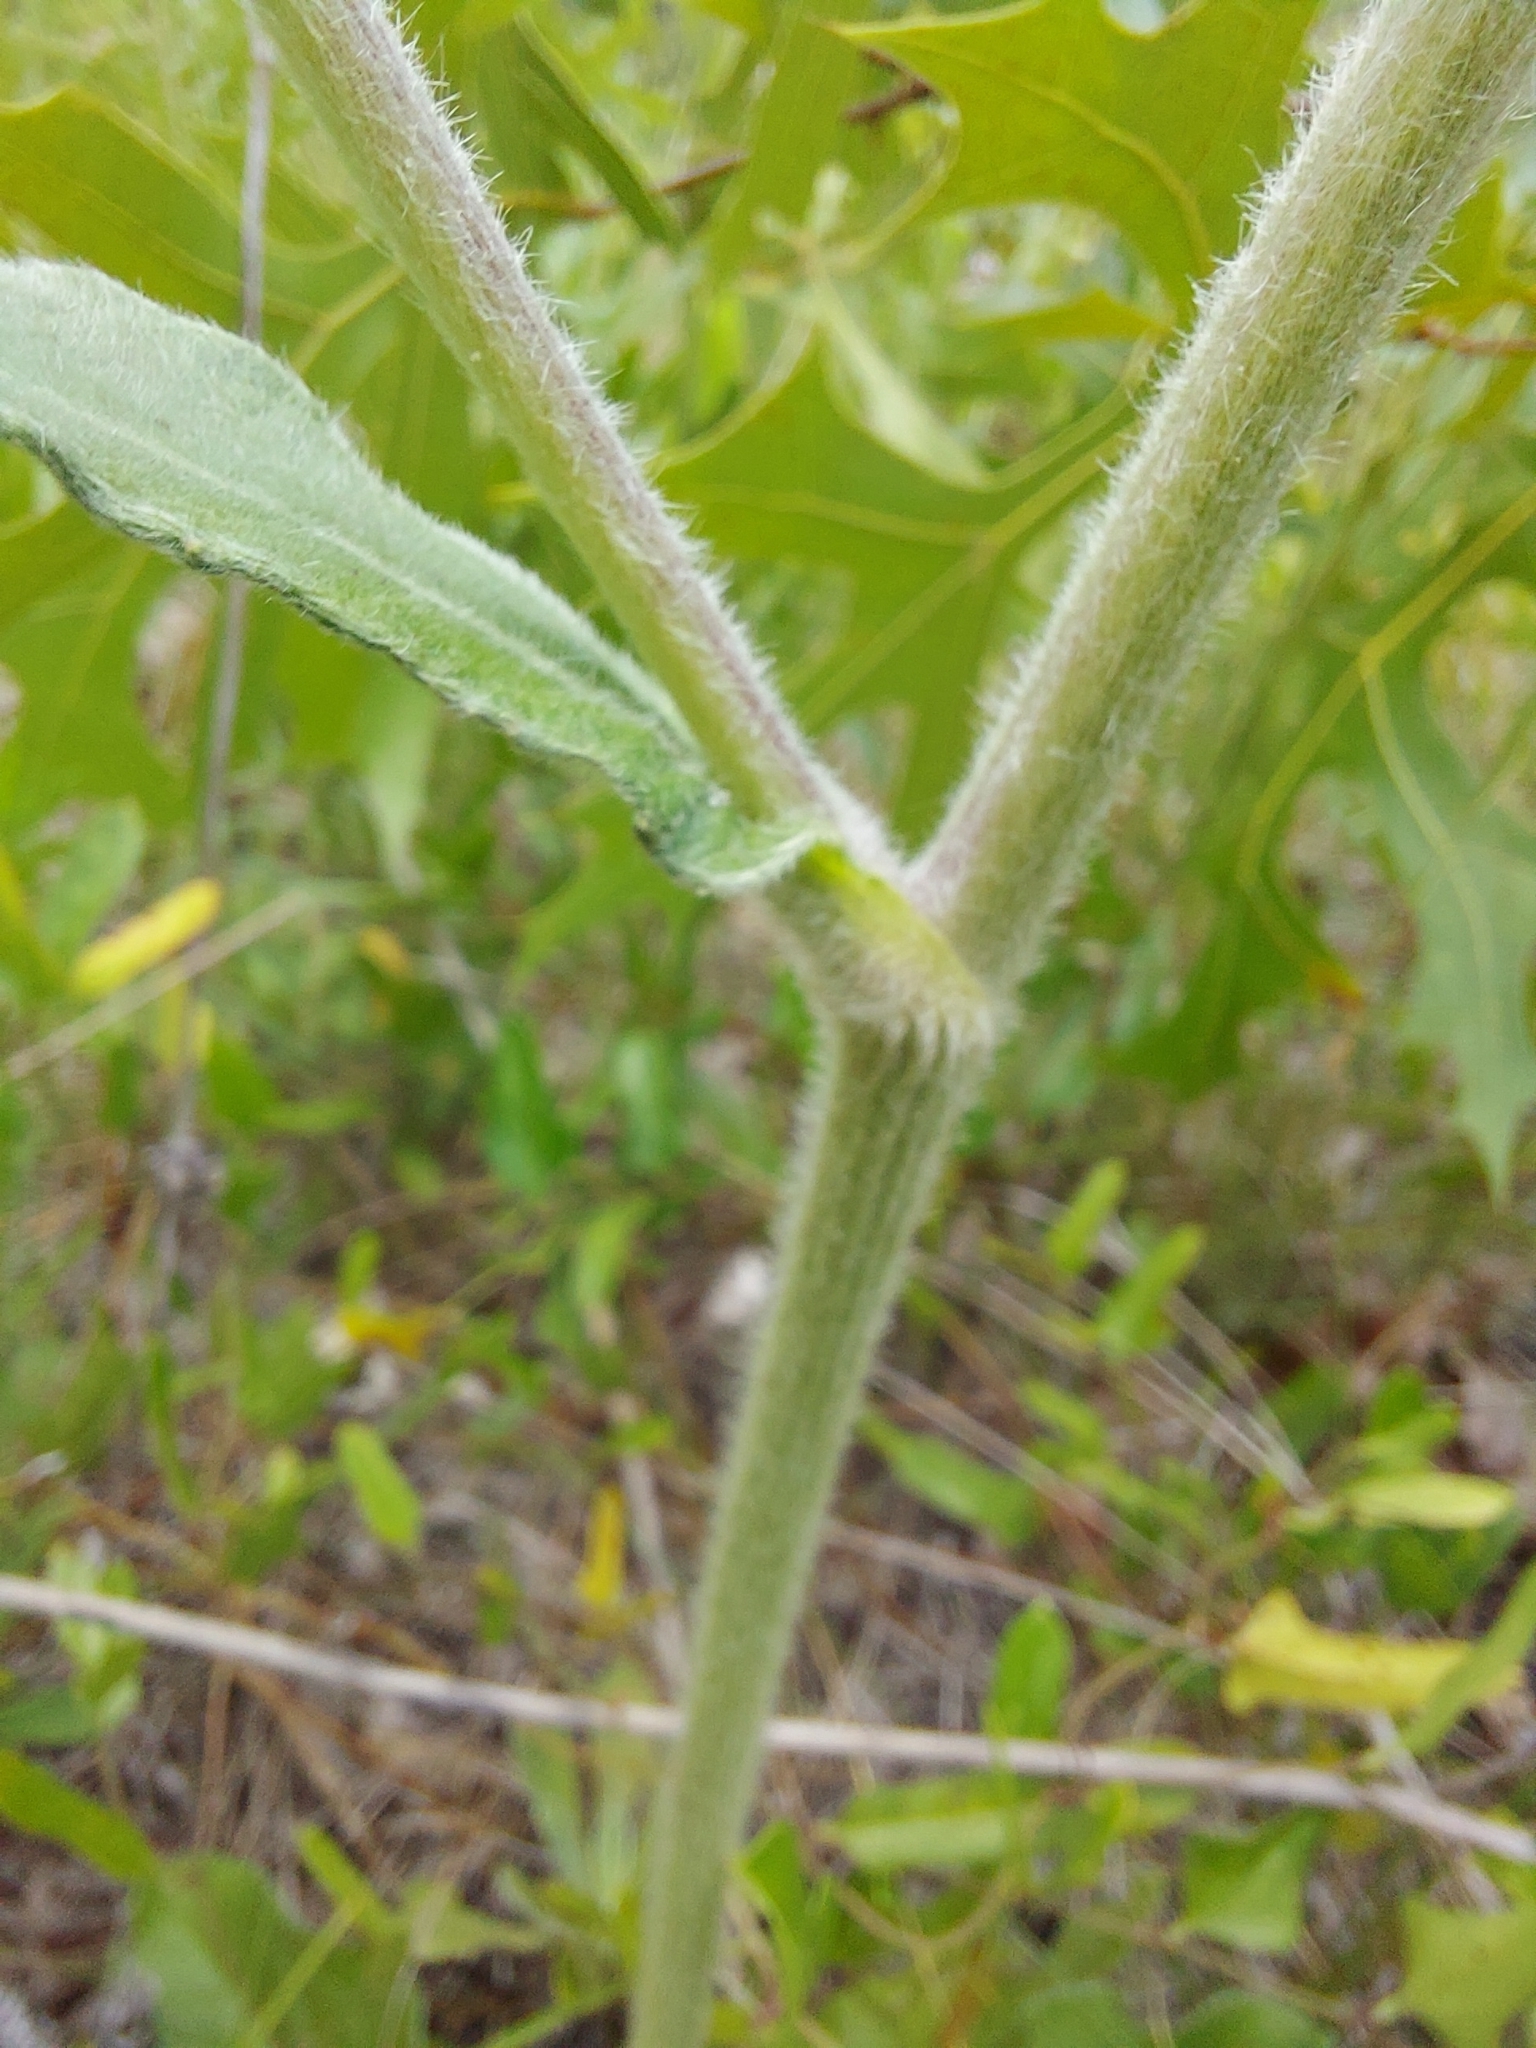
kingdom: Plantae
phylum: Tracheophyta
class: Magnoliopsida
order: Asterales
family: Asteraceae
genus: Elephantopus
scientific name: Elephantopus elatus
